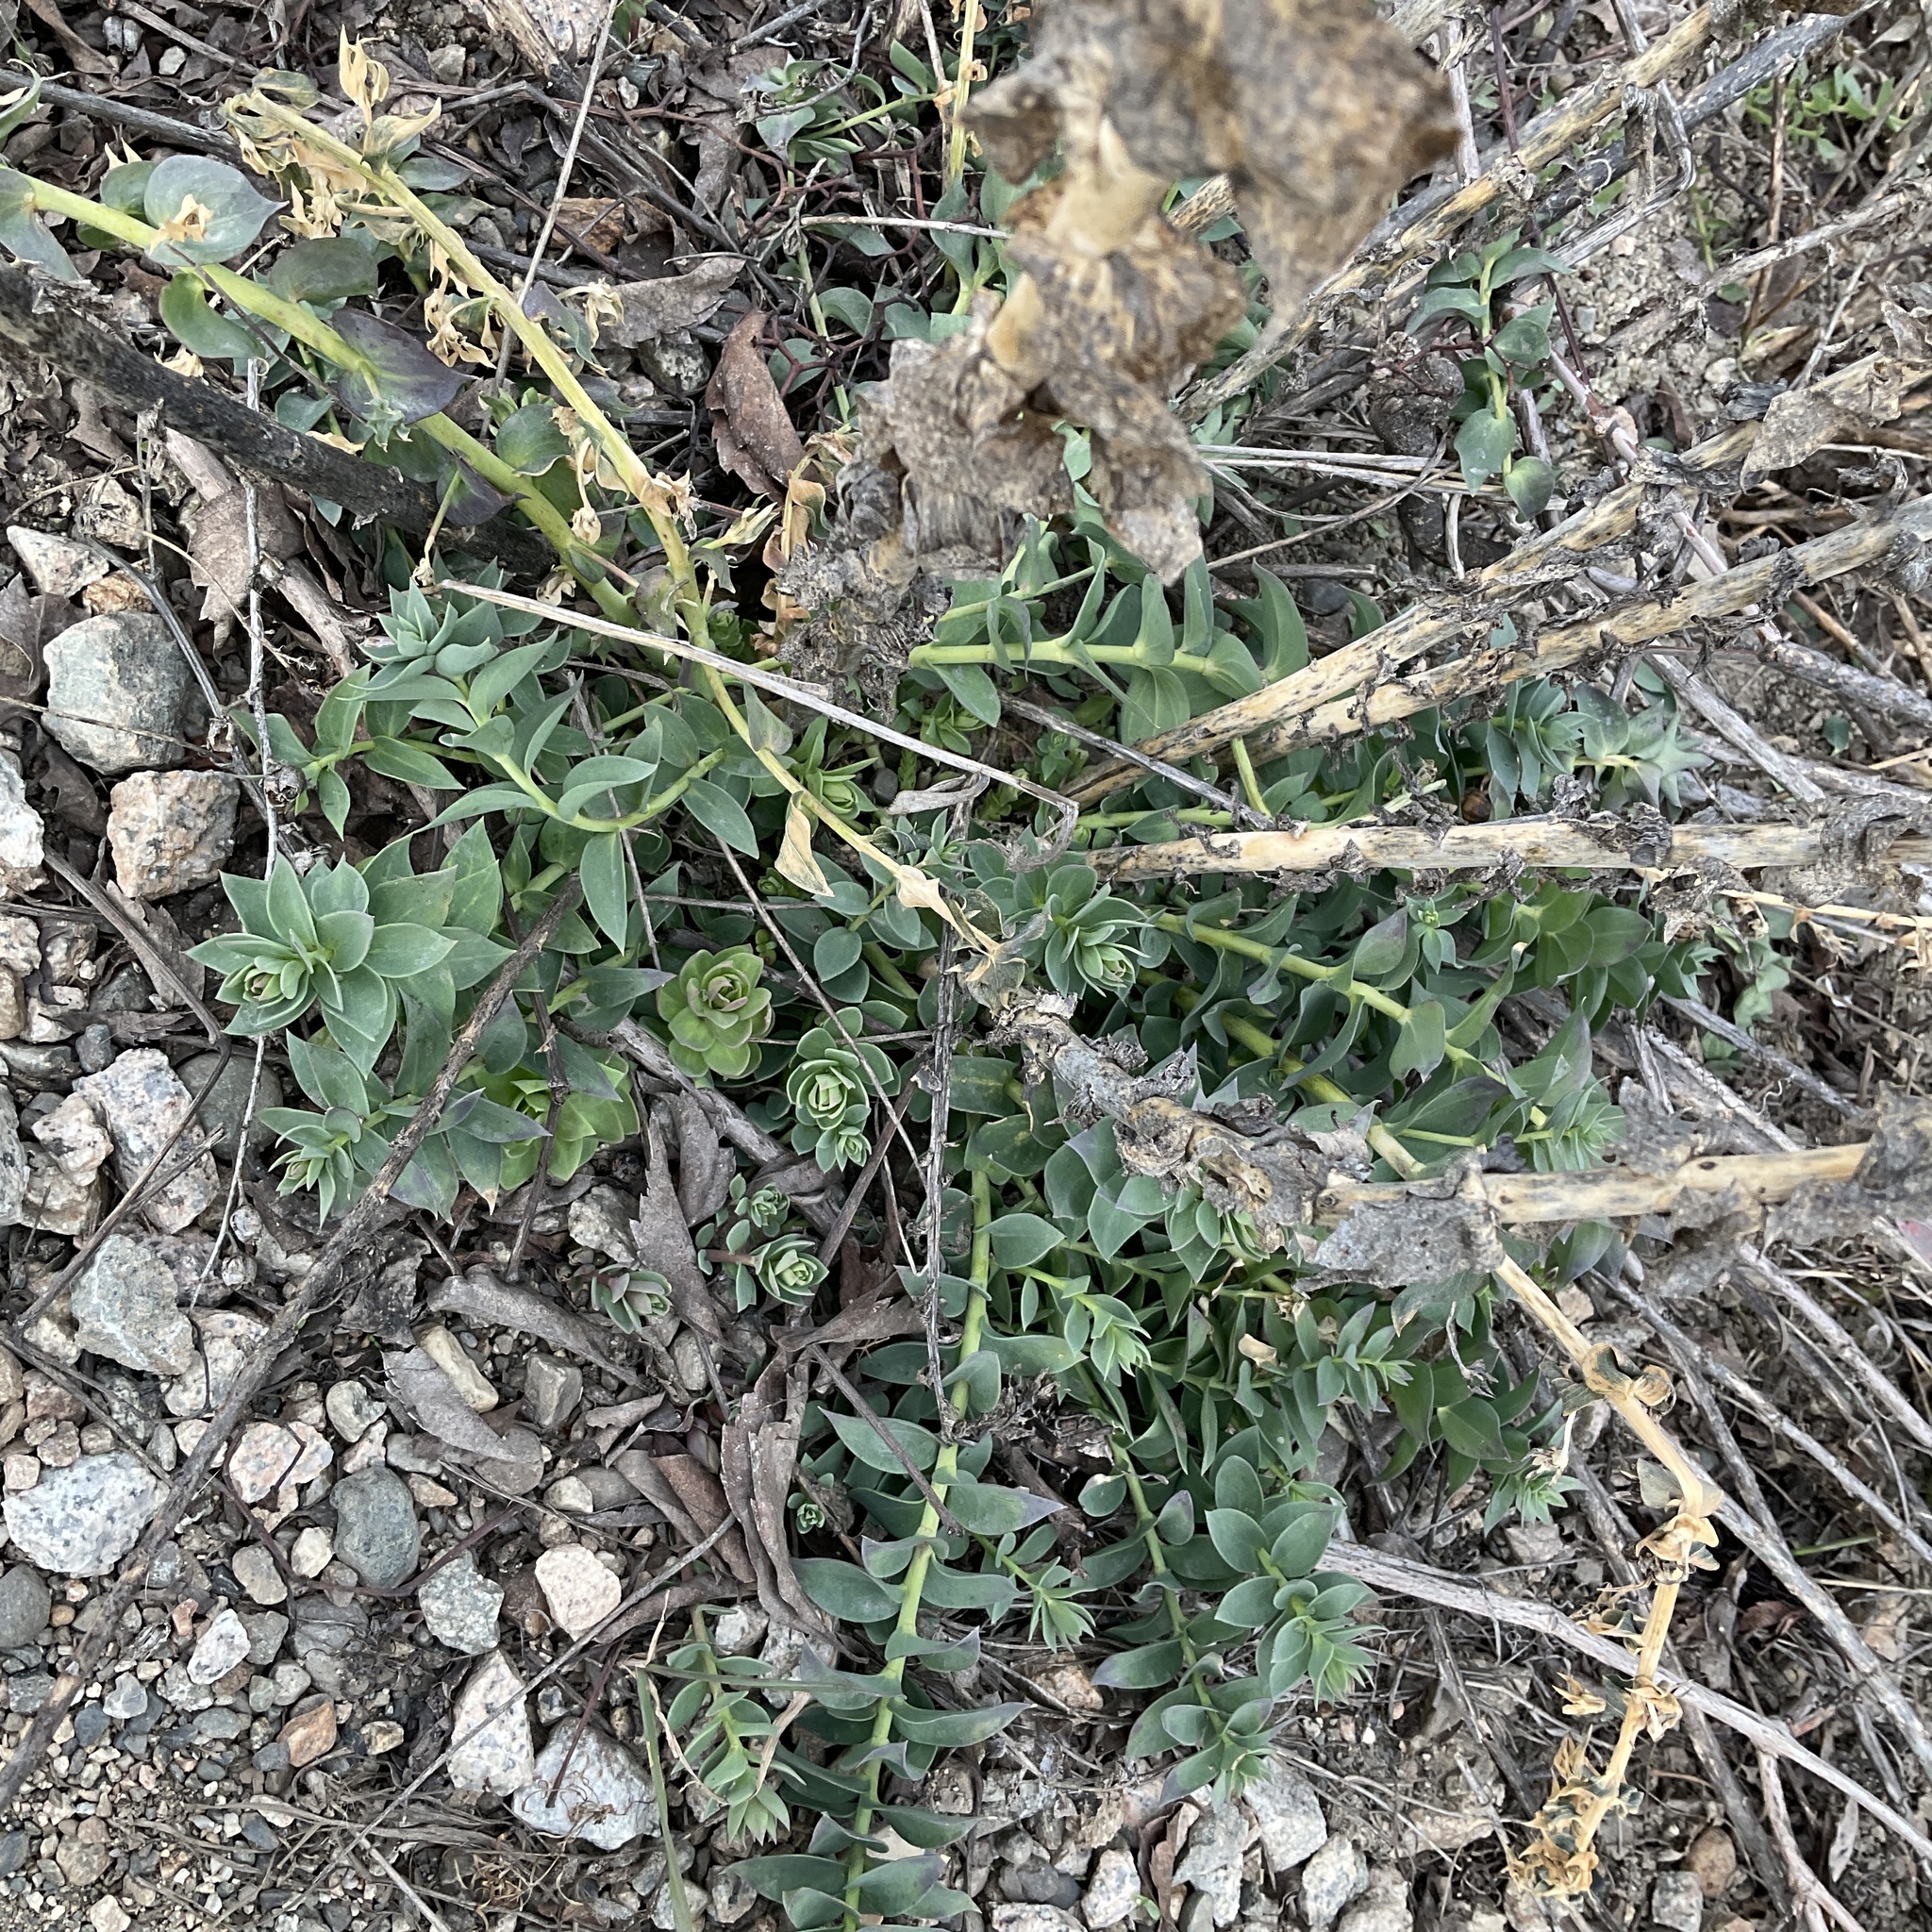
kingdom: Plantae
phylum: Tracheophyta
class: Magnoliopsida
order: Lamiales
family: Plantaginaceae
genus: Linaria
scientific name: Linaria dalmatica
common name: Dalmatian toadflax
